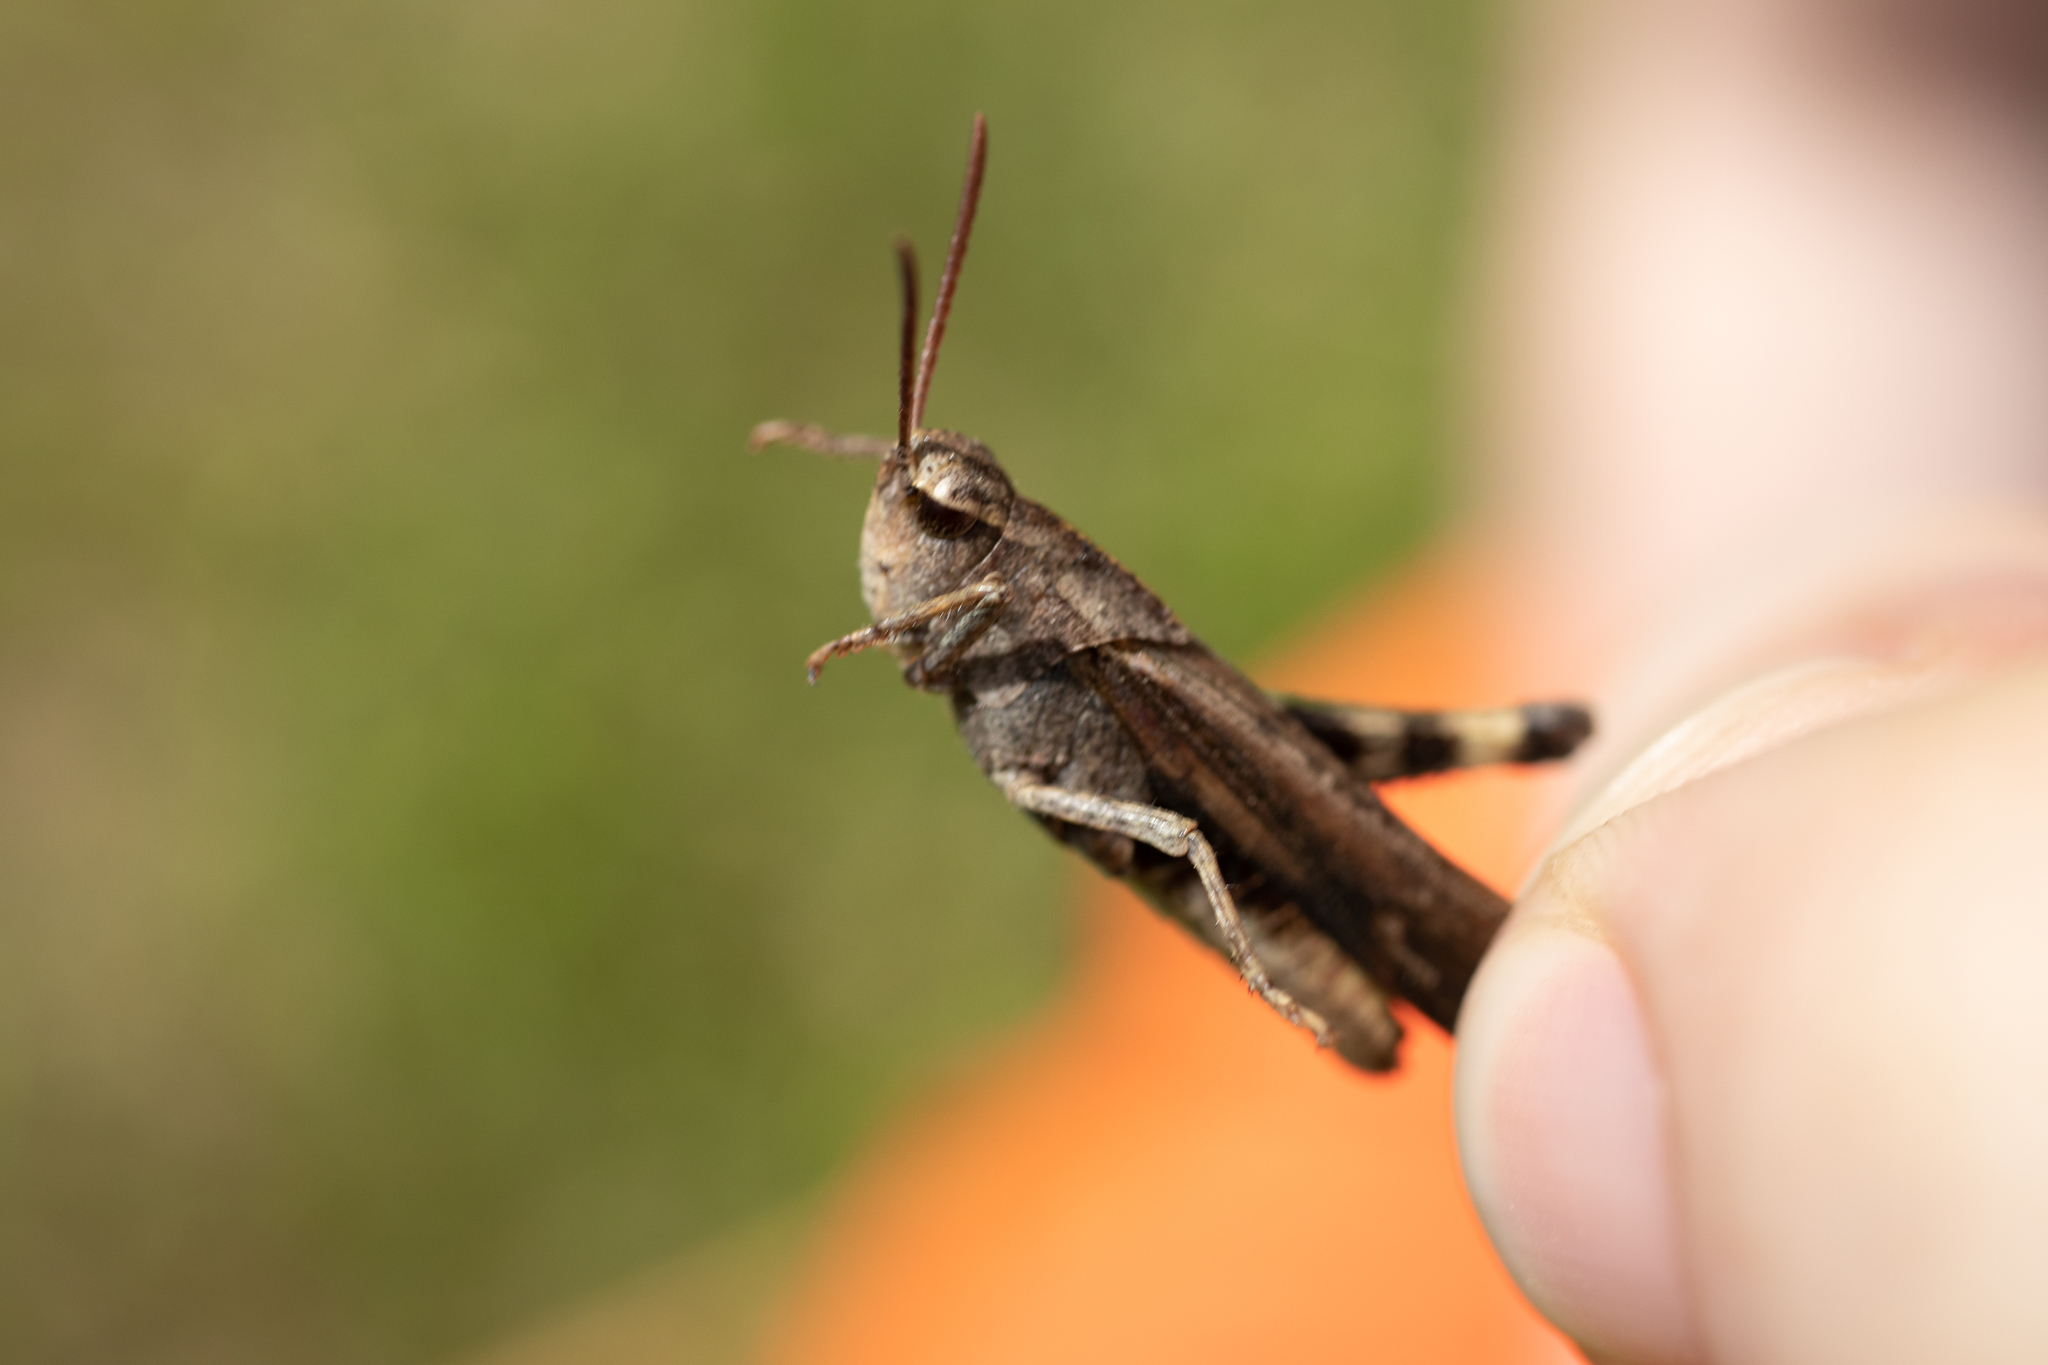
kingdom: Animalia
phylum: Arthropoda
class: Insecta
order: Orthoptera
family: Acrididae
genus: Chortophaga
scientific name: Chortophaga viridifasciata
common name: Green-striped grasshopper
